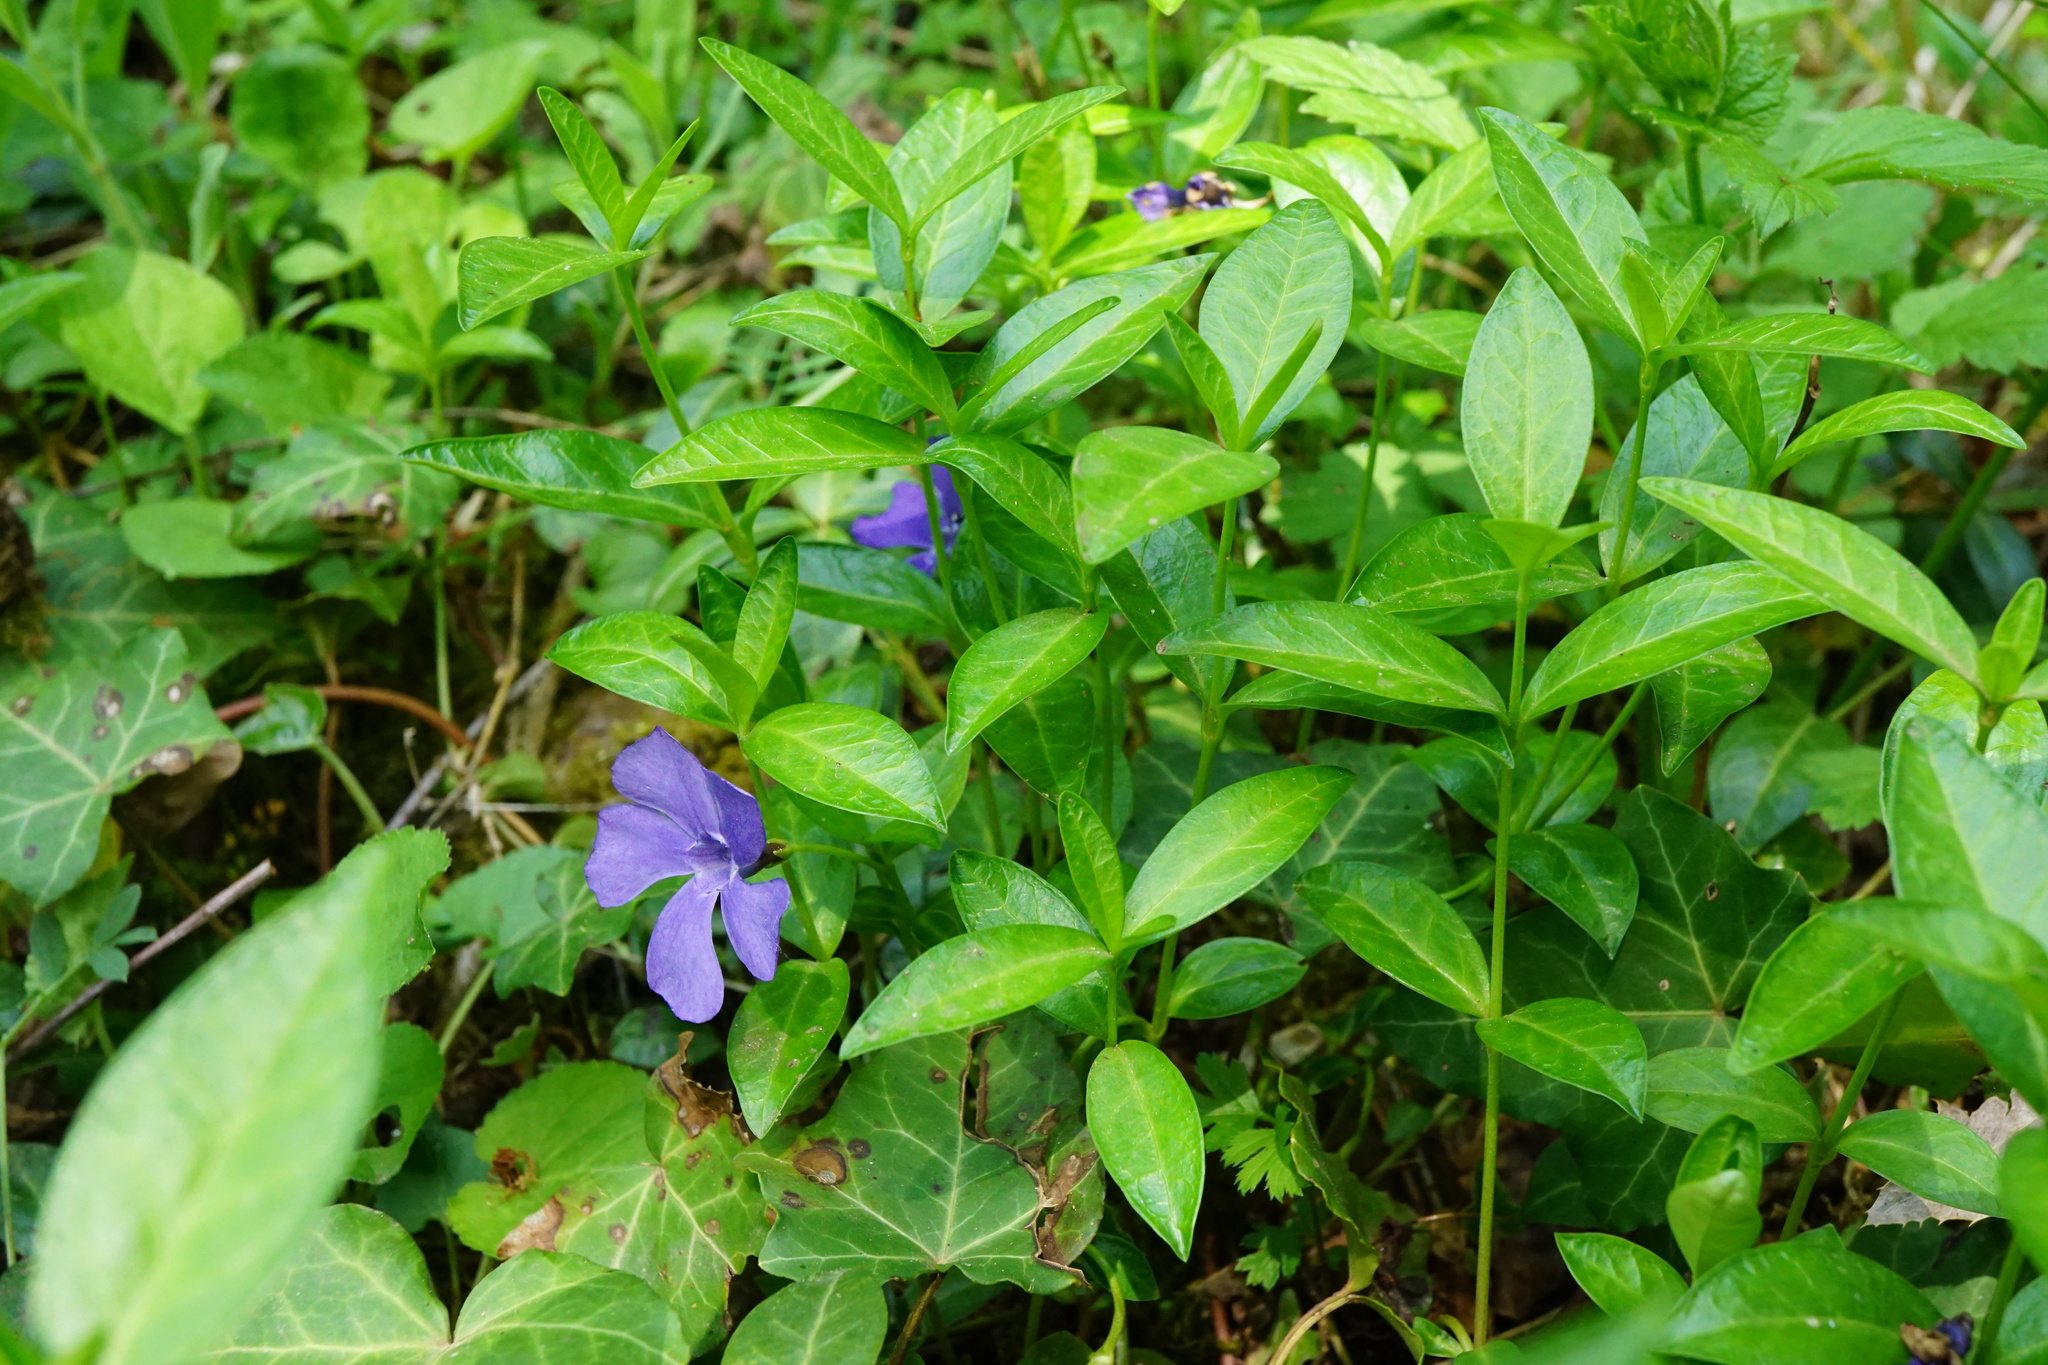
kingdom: Plantae
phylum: Tracheophyta
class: Magnoliopsida
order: Gentianales
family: Apocynaceae
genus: Vinca
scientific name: Vinca minor
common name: Lesser periwinkle
